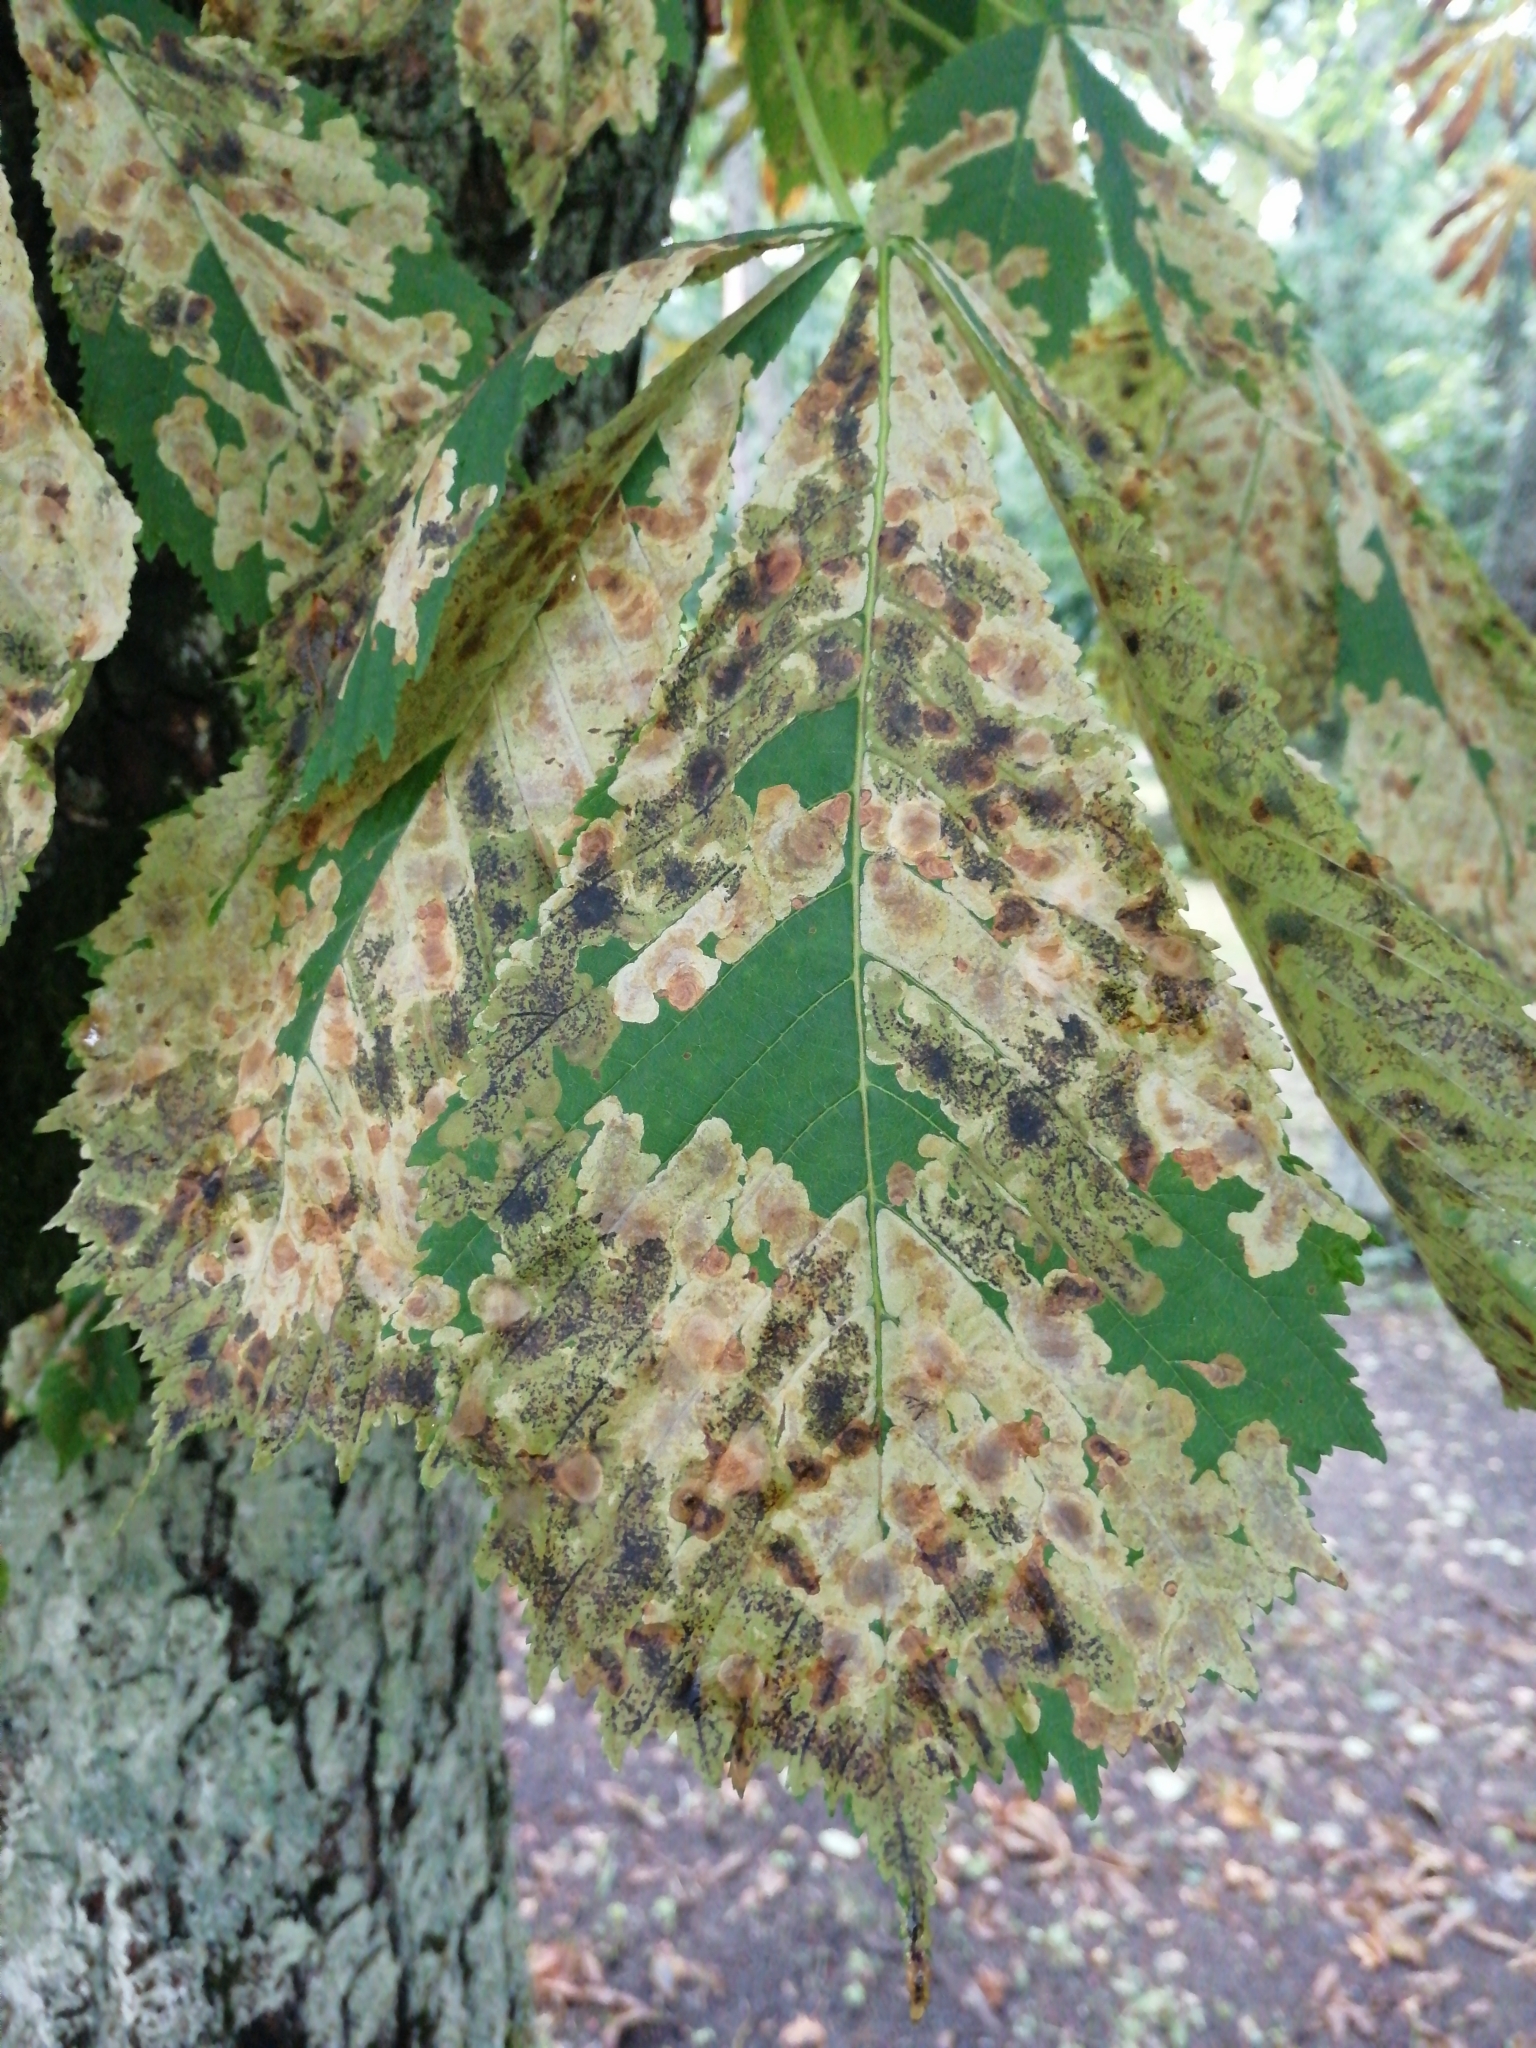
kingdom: Animalia
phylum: Arthropoda
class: Insecta
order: Lepidoptera
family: Gracillariidae
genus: Cameraria
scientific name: Cameraria ohridella
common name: Horse-chestnut leaf-miner
